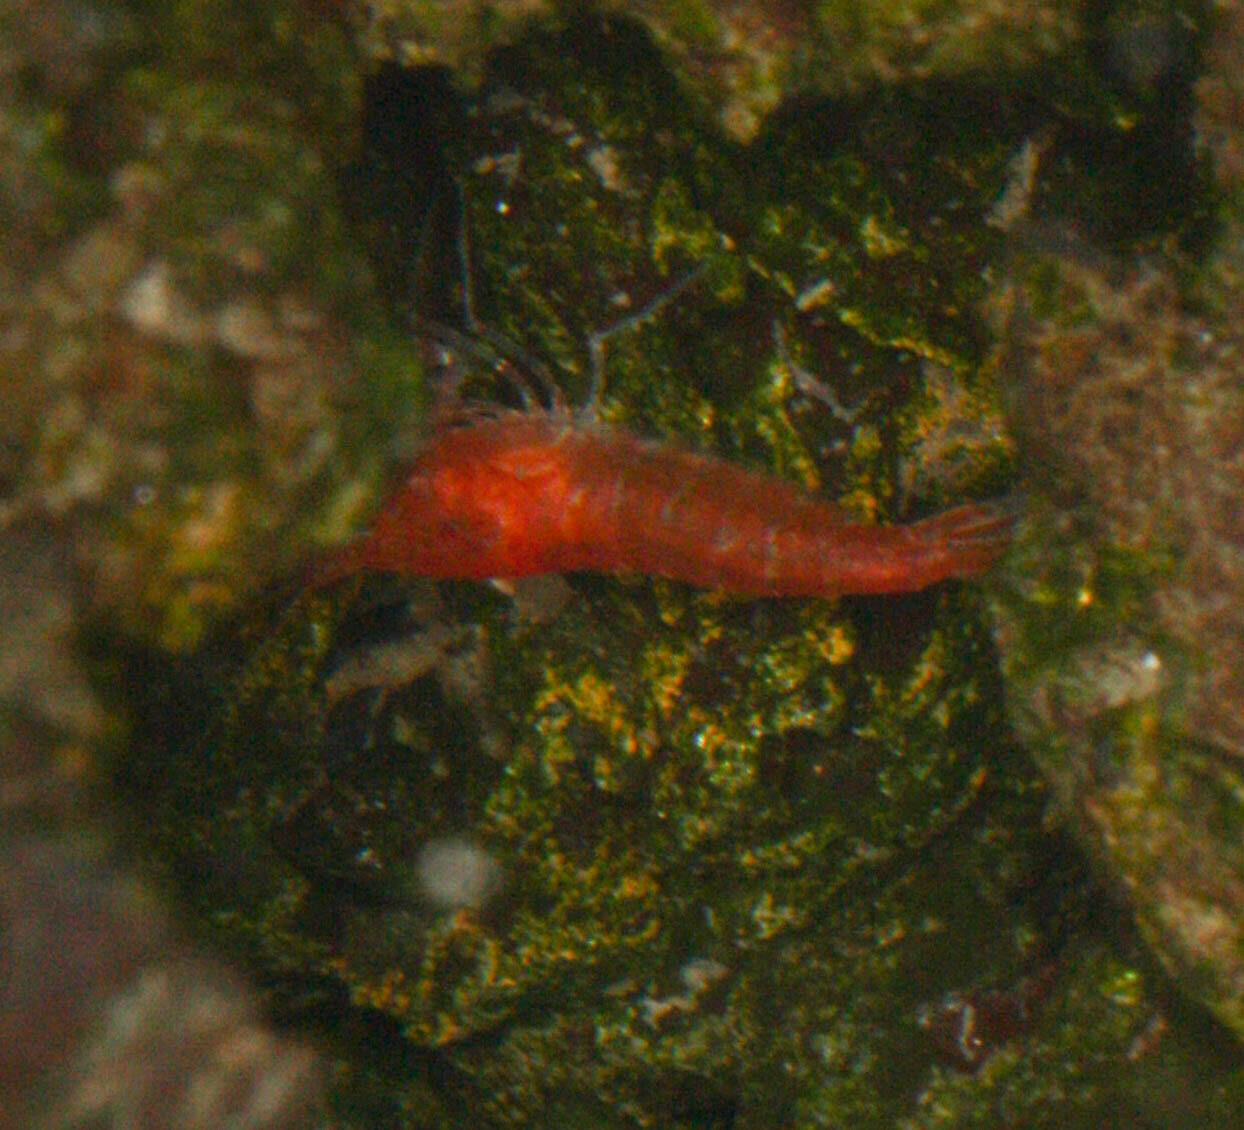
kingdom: Animalia
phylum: Arthropoda
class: Malacostraca
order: Decapoda
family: Alpheidae
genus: Metabetaeus
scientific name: Metabetaeus lohena
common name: Anchialine snapping shrimp
